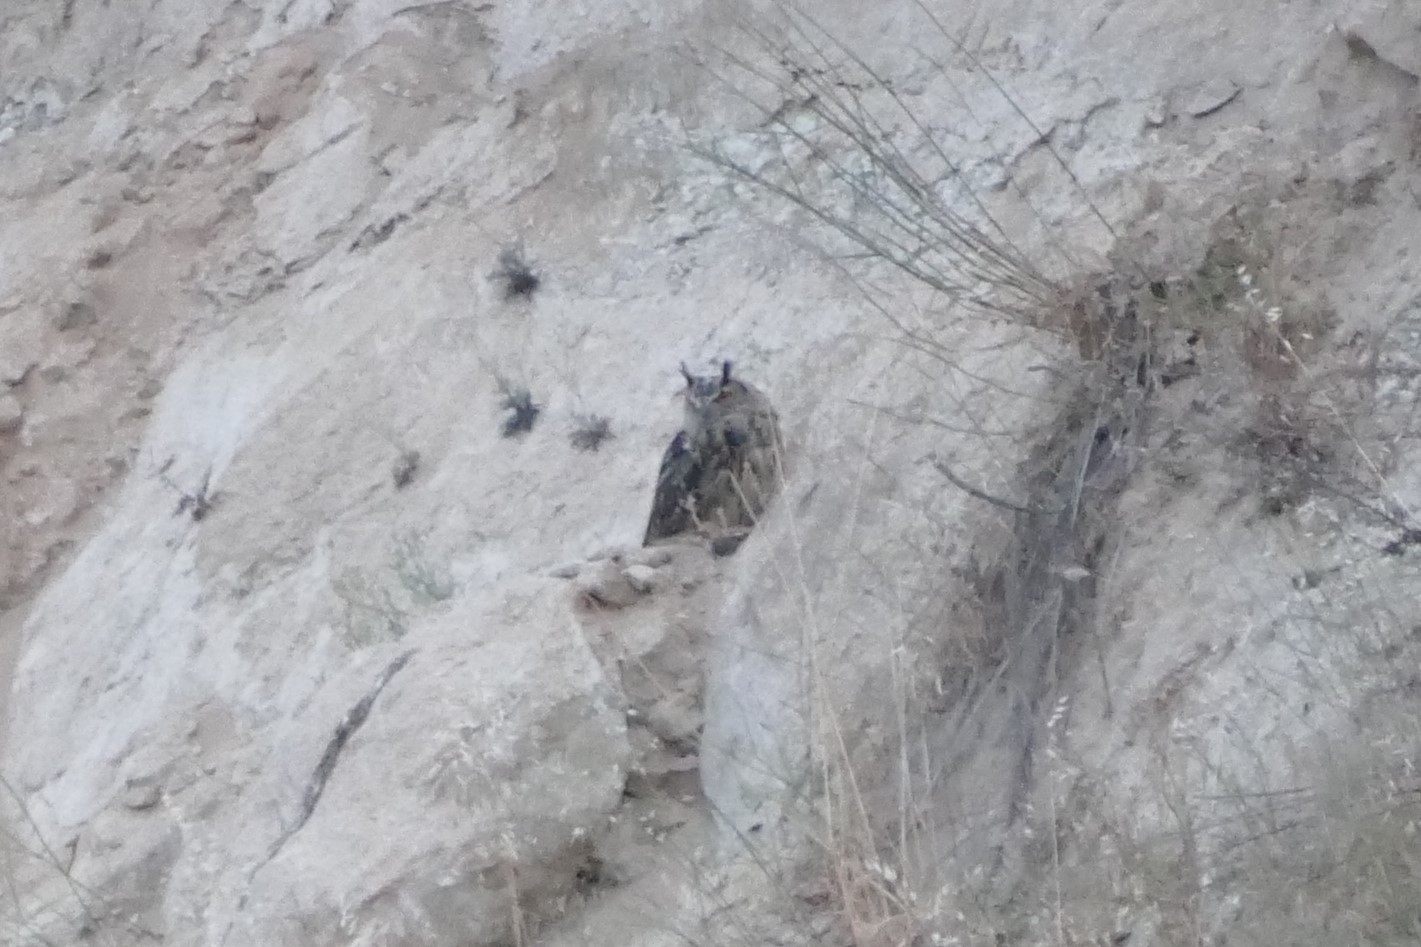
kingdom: Animalia
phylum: Chordata
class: Aves
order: Strigiformes
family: Strigidae
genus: Bubo
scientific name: Bubo bubo
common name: Eurasian eagle-owl
